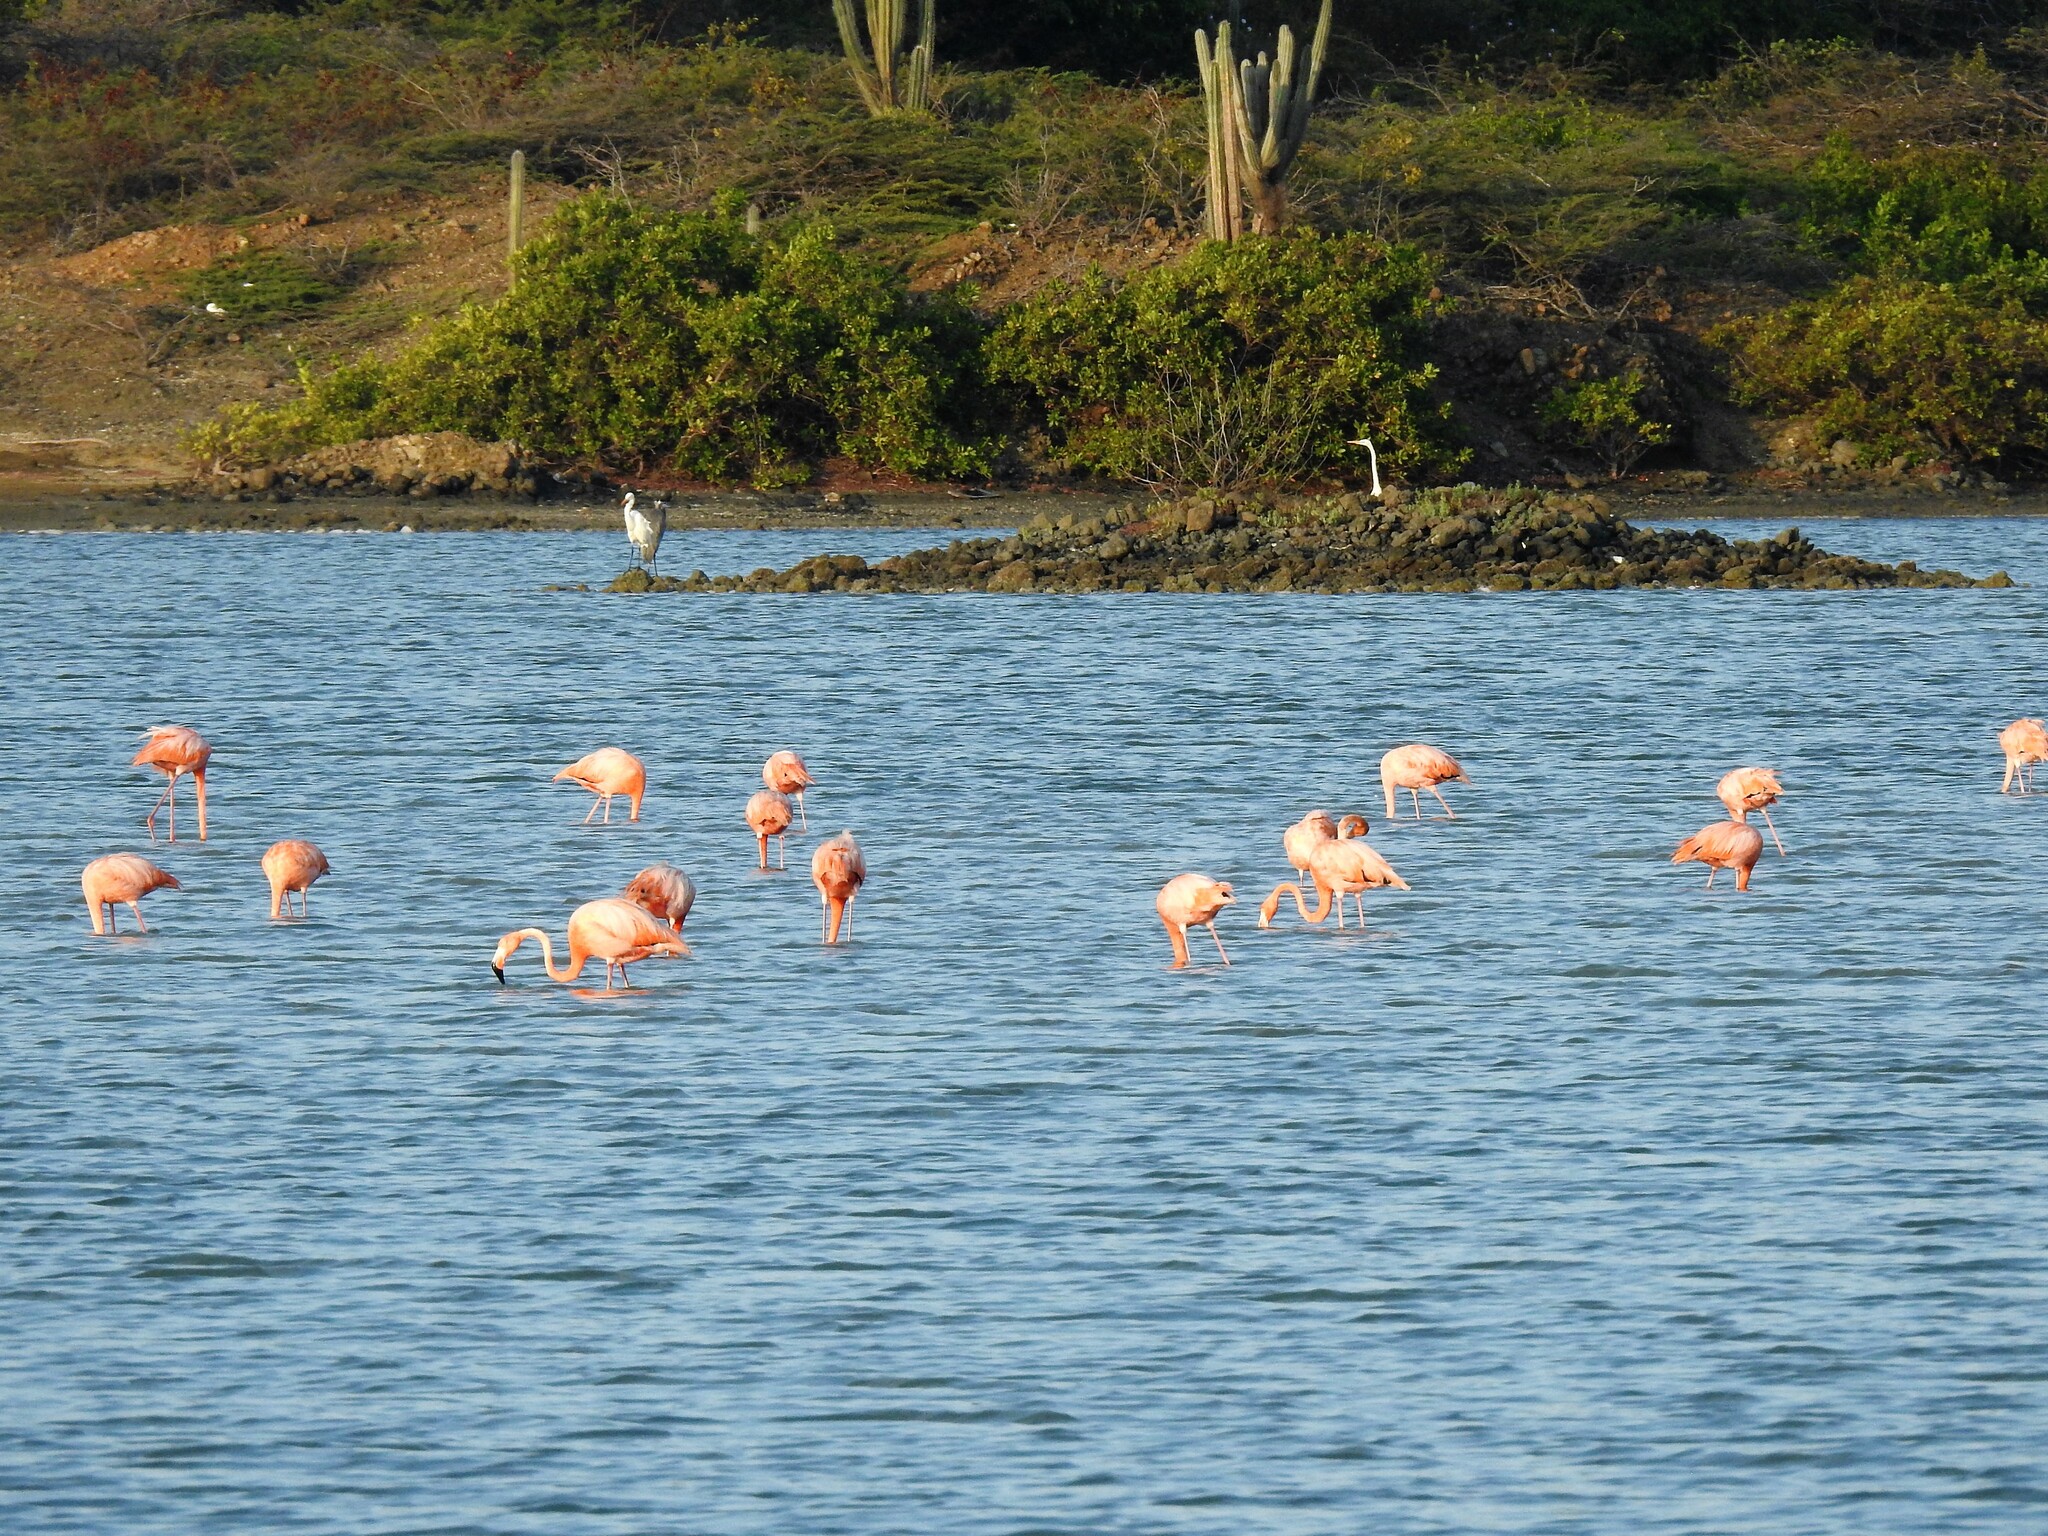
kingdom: Animalia
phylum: Chordata
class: Aves
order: Phoenicopteriformes
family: Phoenicopteridae
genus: Phoenicopterus
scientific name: Phoenicopterus ruber
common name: American flamingo
